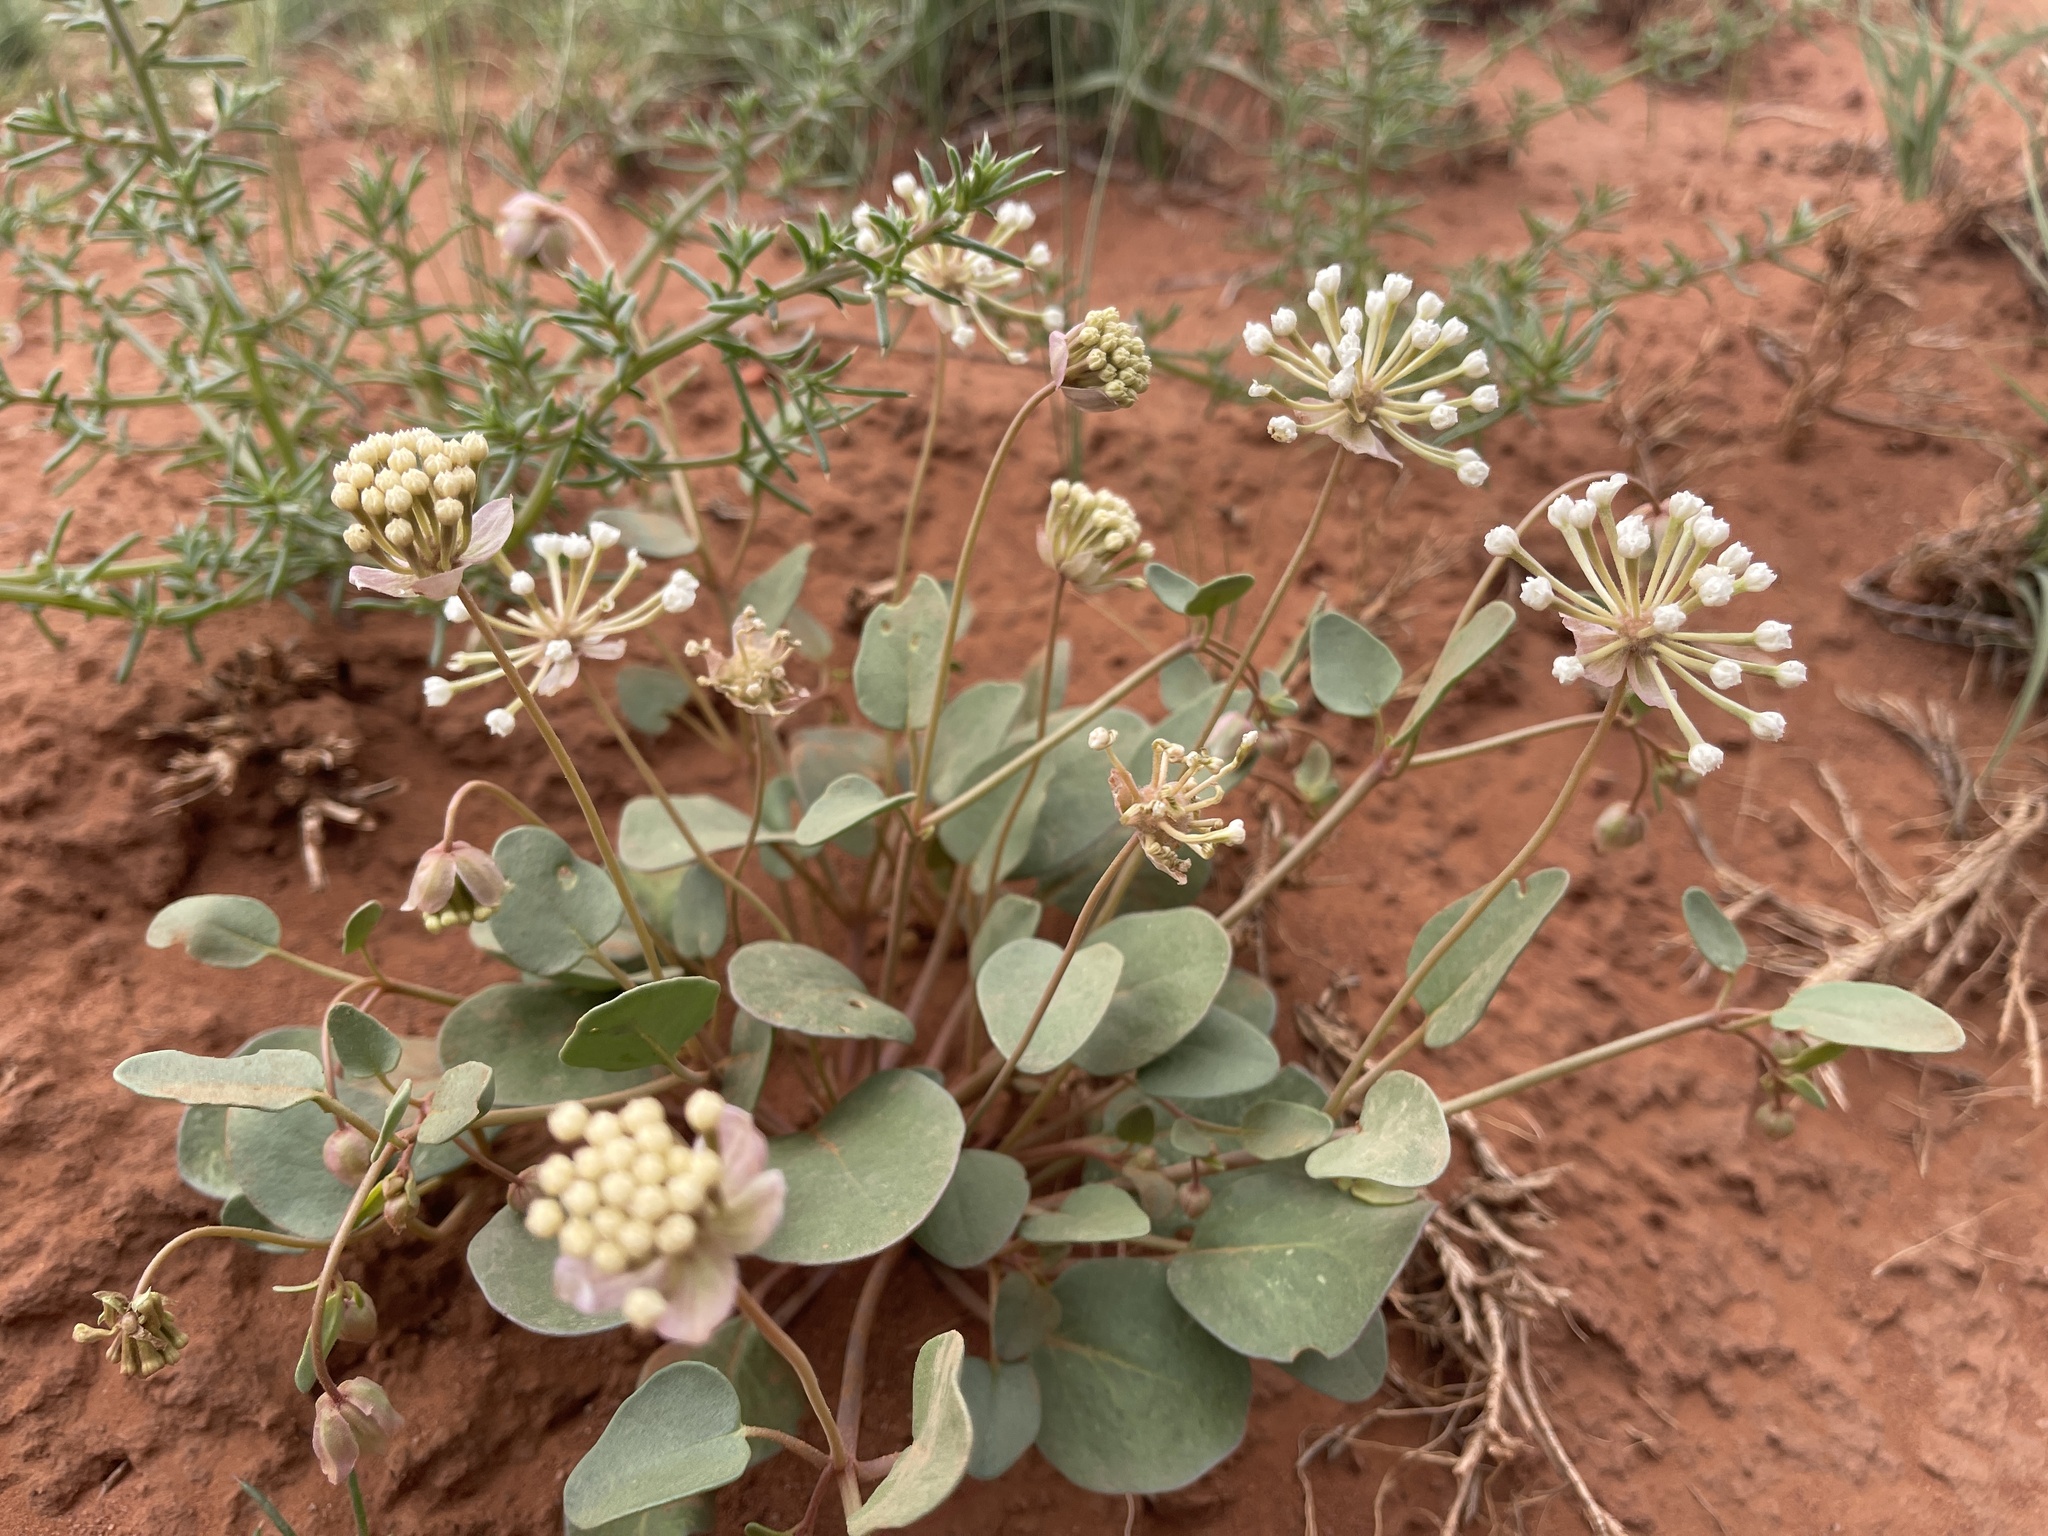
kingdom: Plantae
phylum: Tracheophyta
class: Magnoliopsida
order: Caryophyllales
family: Nyctaginaceae
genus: Abronia
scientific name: Abronia elliptica
